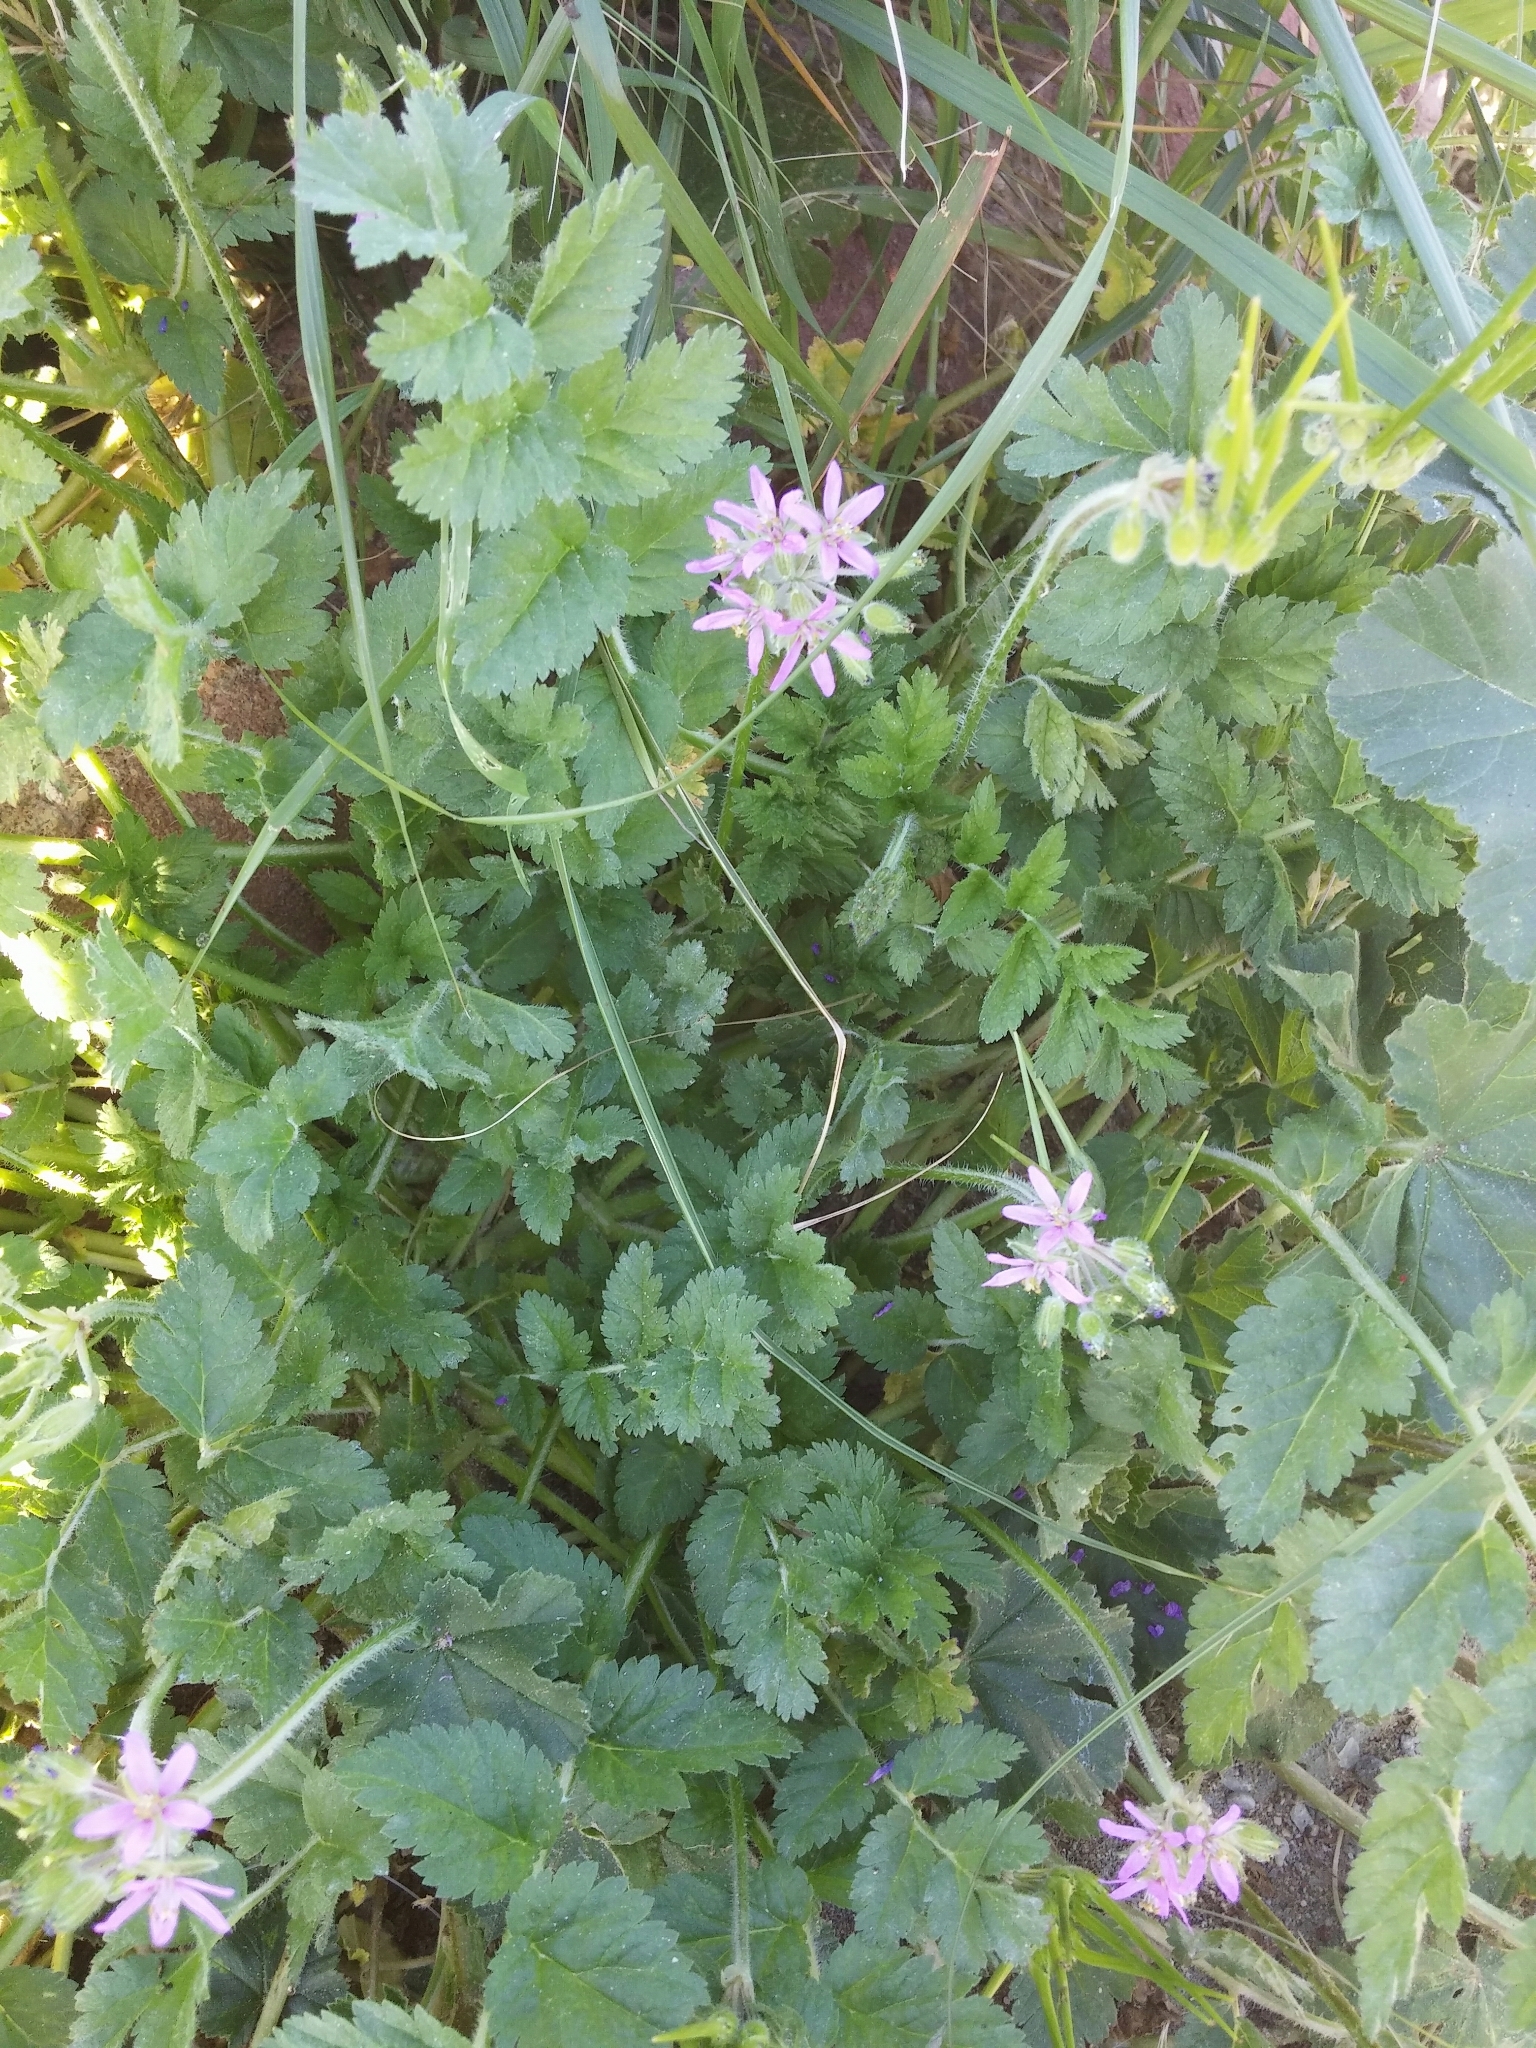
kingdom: Plantae
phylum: Tracheophyta
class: Magnoliopsida
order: Geraniales
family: Geraniaceae
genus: Erodium
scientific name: Erodium moschatum
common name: Musk stork's-bill
